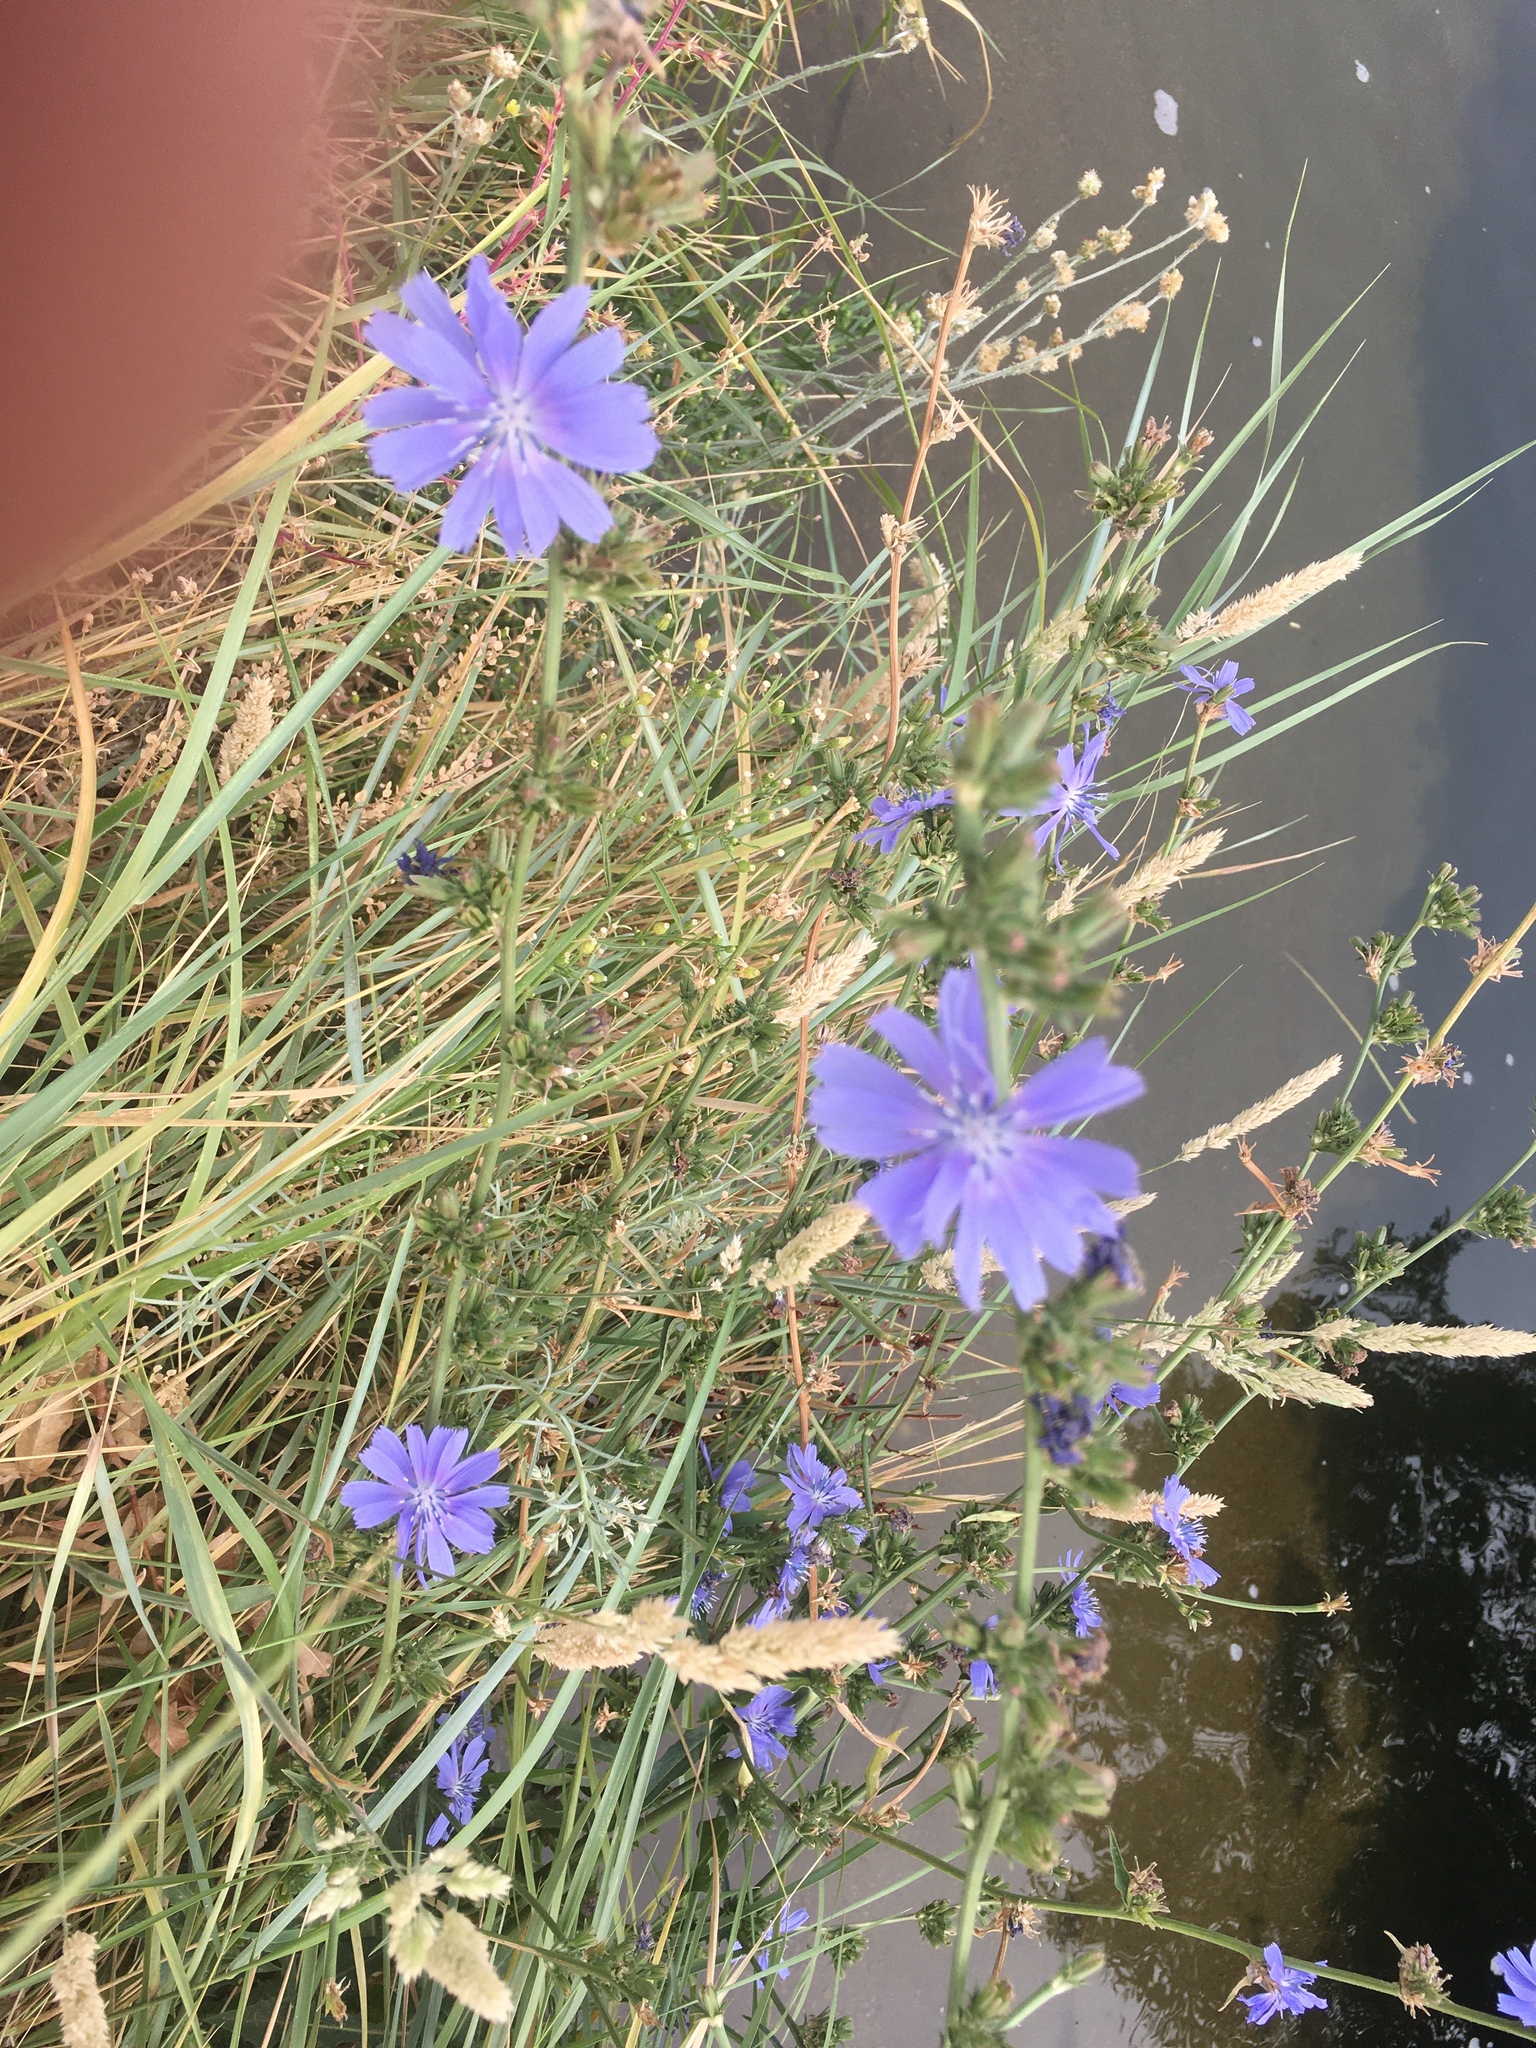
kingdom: Plantae
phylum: Tracheophyta
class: Magnoliopsida
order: Asterales
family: Asteraceae
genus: Cichorium
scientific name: Cichorium intybus
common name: Chicory
